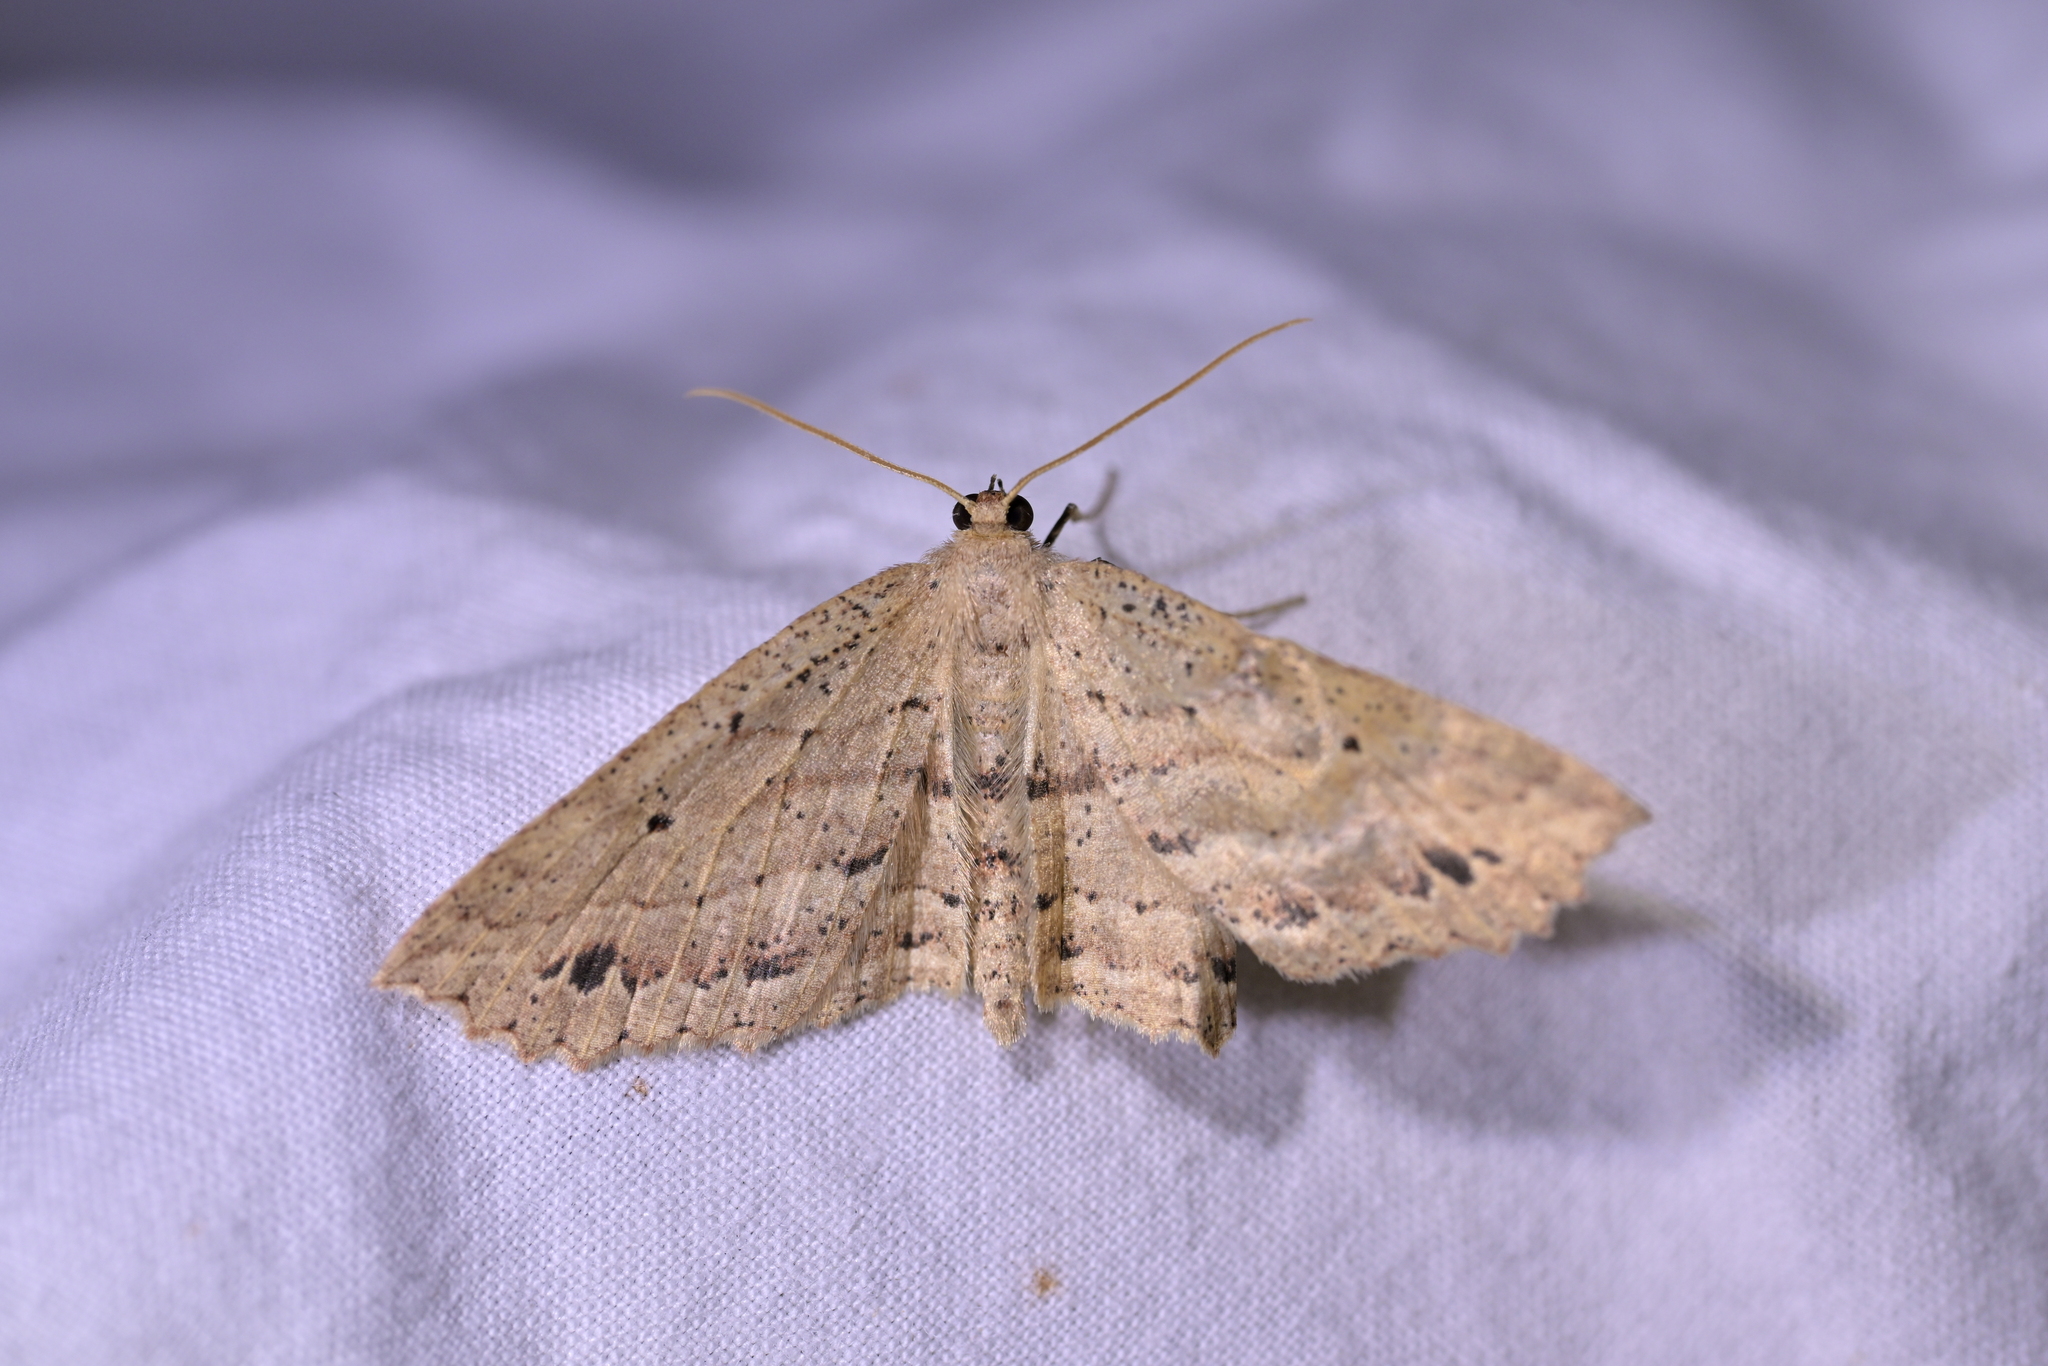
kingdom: Animalia
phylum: Arthropoda
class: Insecta
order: Lepidoptera
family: Geometridae
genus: Xyridacma
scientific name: Xyridacma veronicae
